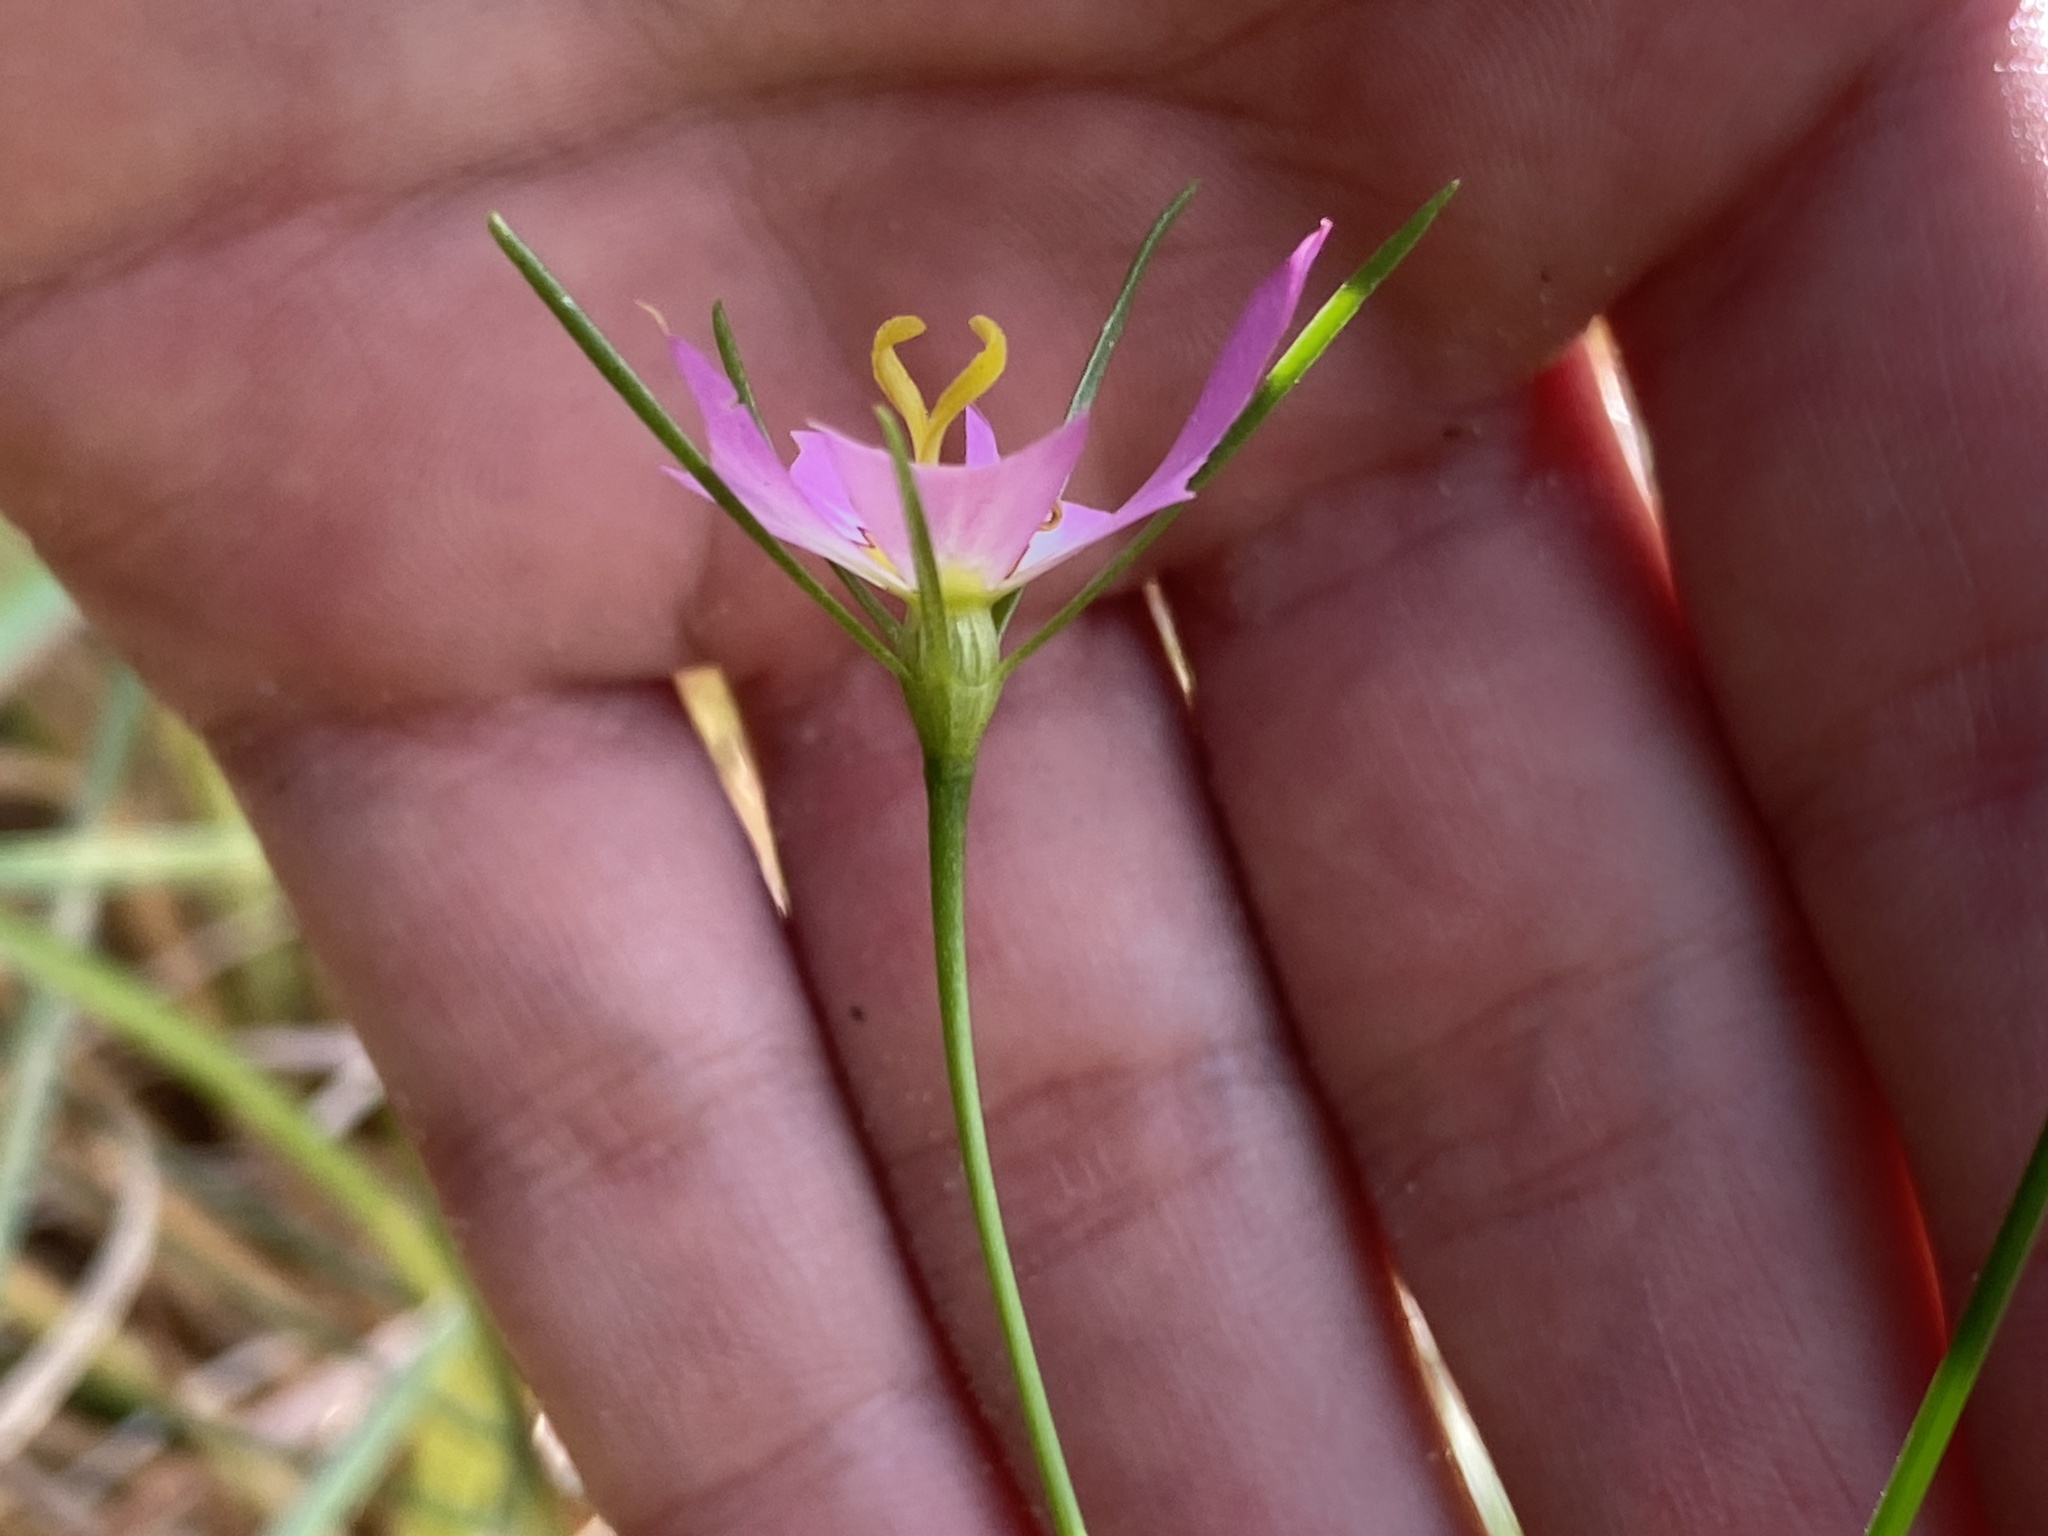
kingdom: Plantae
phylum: Tracheophyta
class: Magnoliopsida
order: Gentianales
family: Gentianaceae
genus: Sabatia
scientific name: Sabatia stellaris
